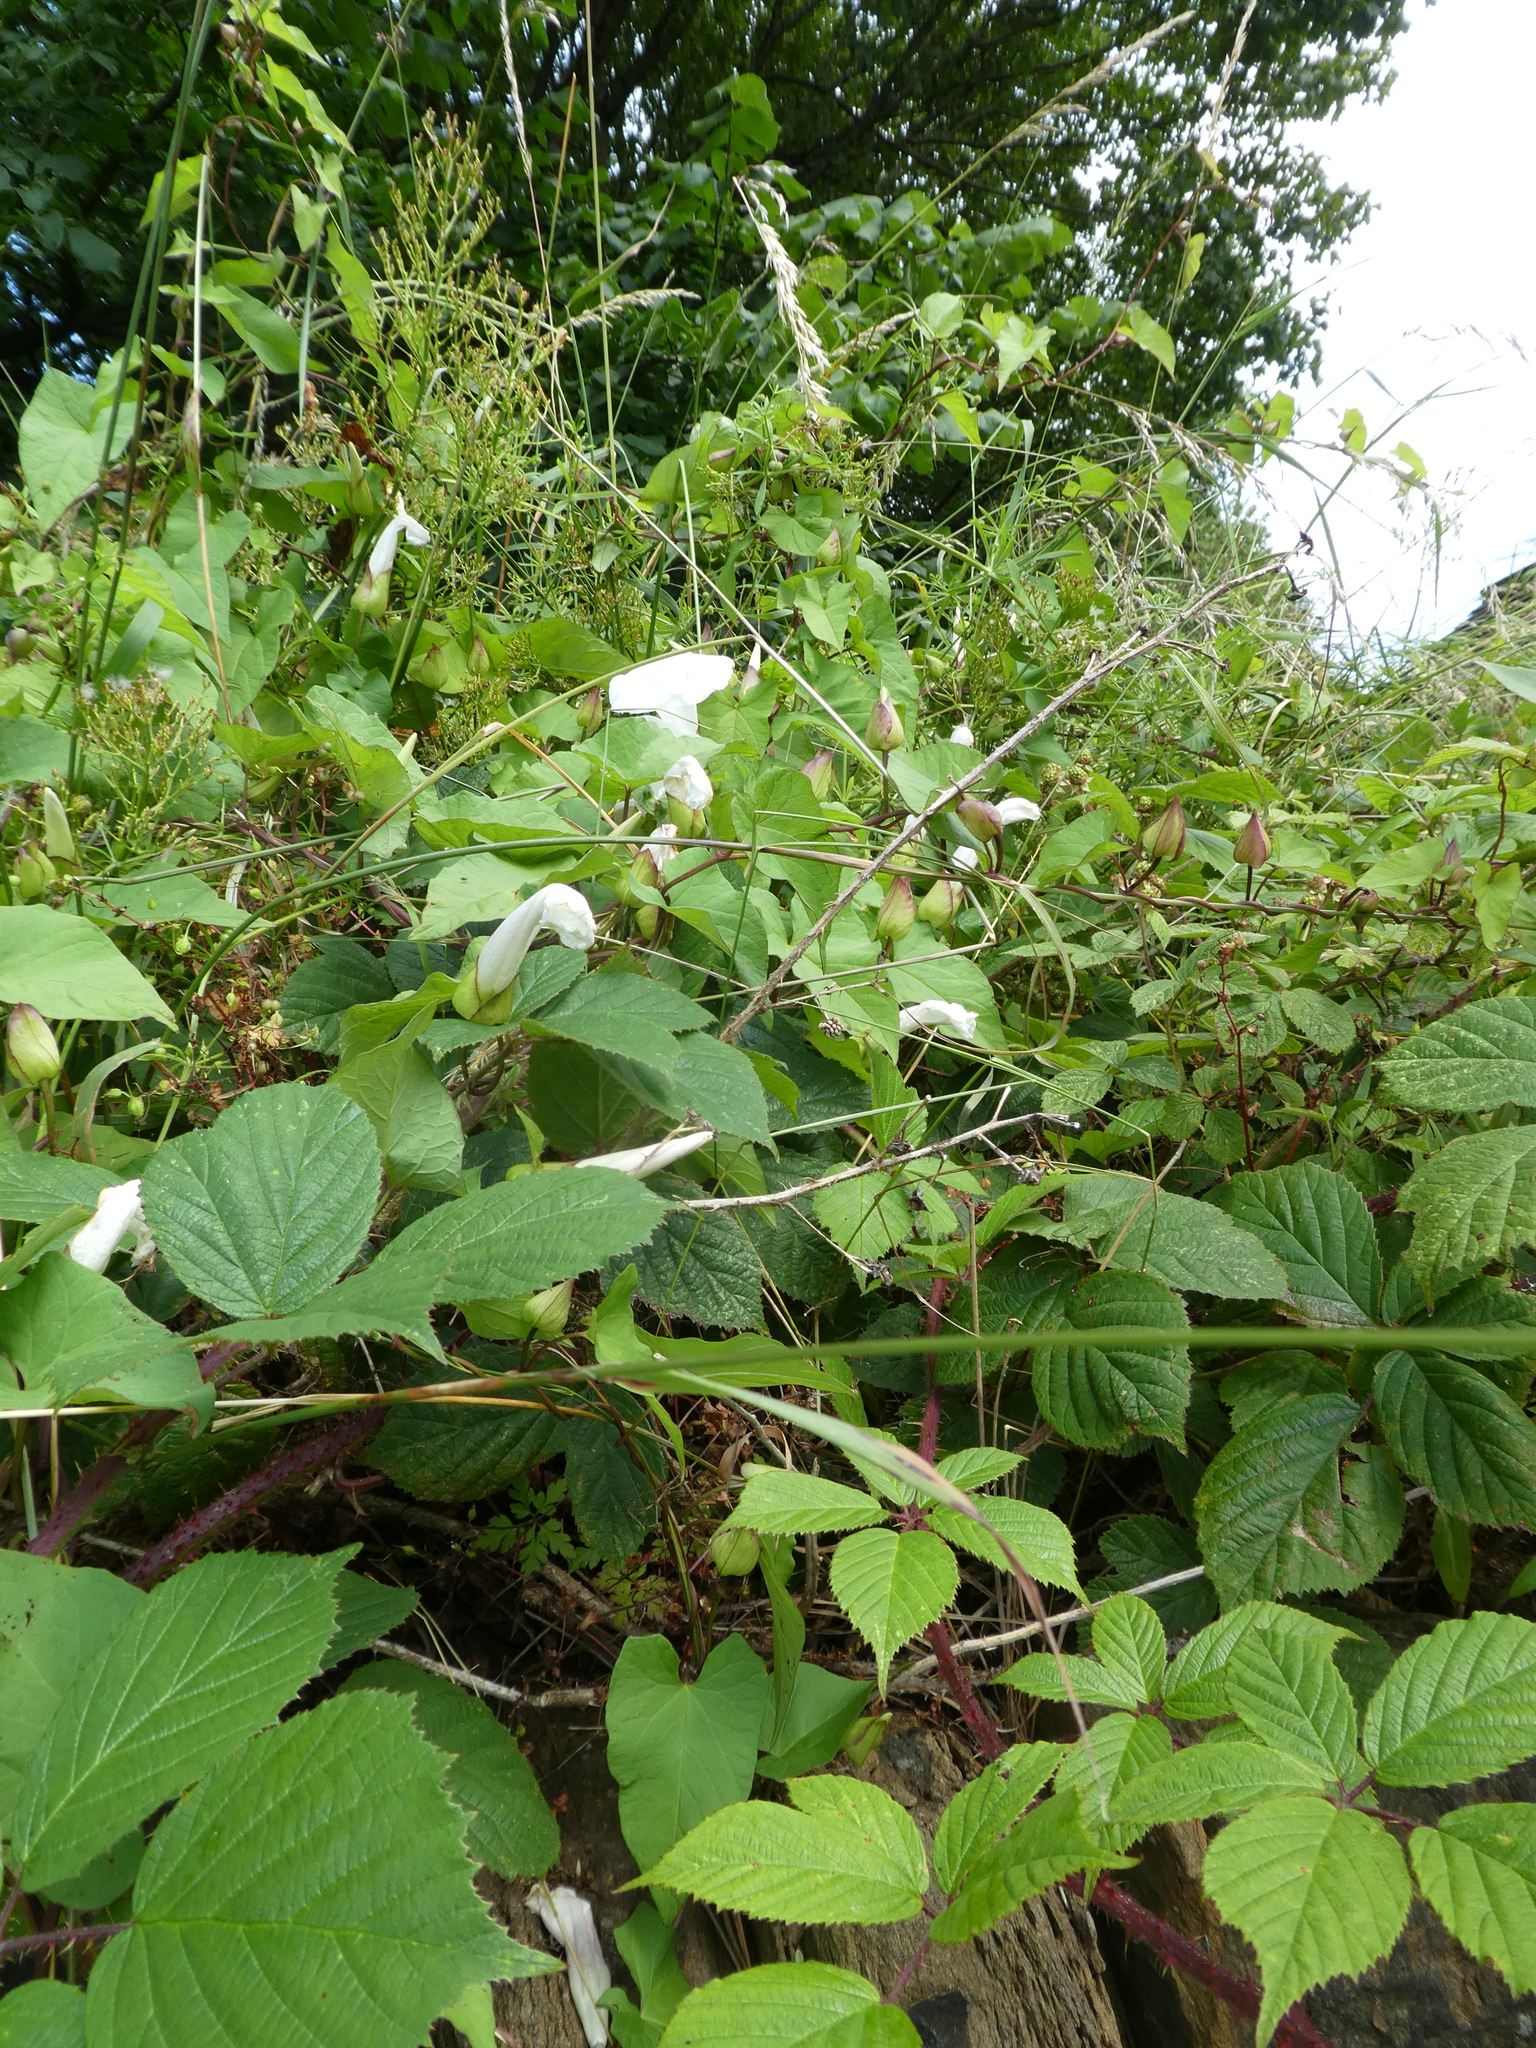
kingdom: Plantae
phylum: Tracheophyta
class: Magnoliopsida
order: Solanales
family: Convolvulaceae
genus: Calystegia
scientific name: Calystegia silvatica
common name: Large bindweed
